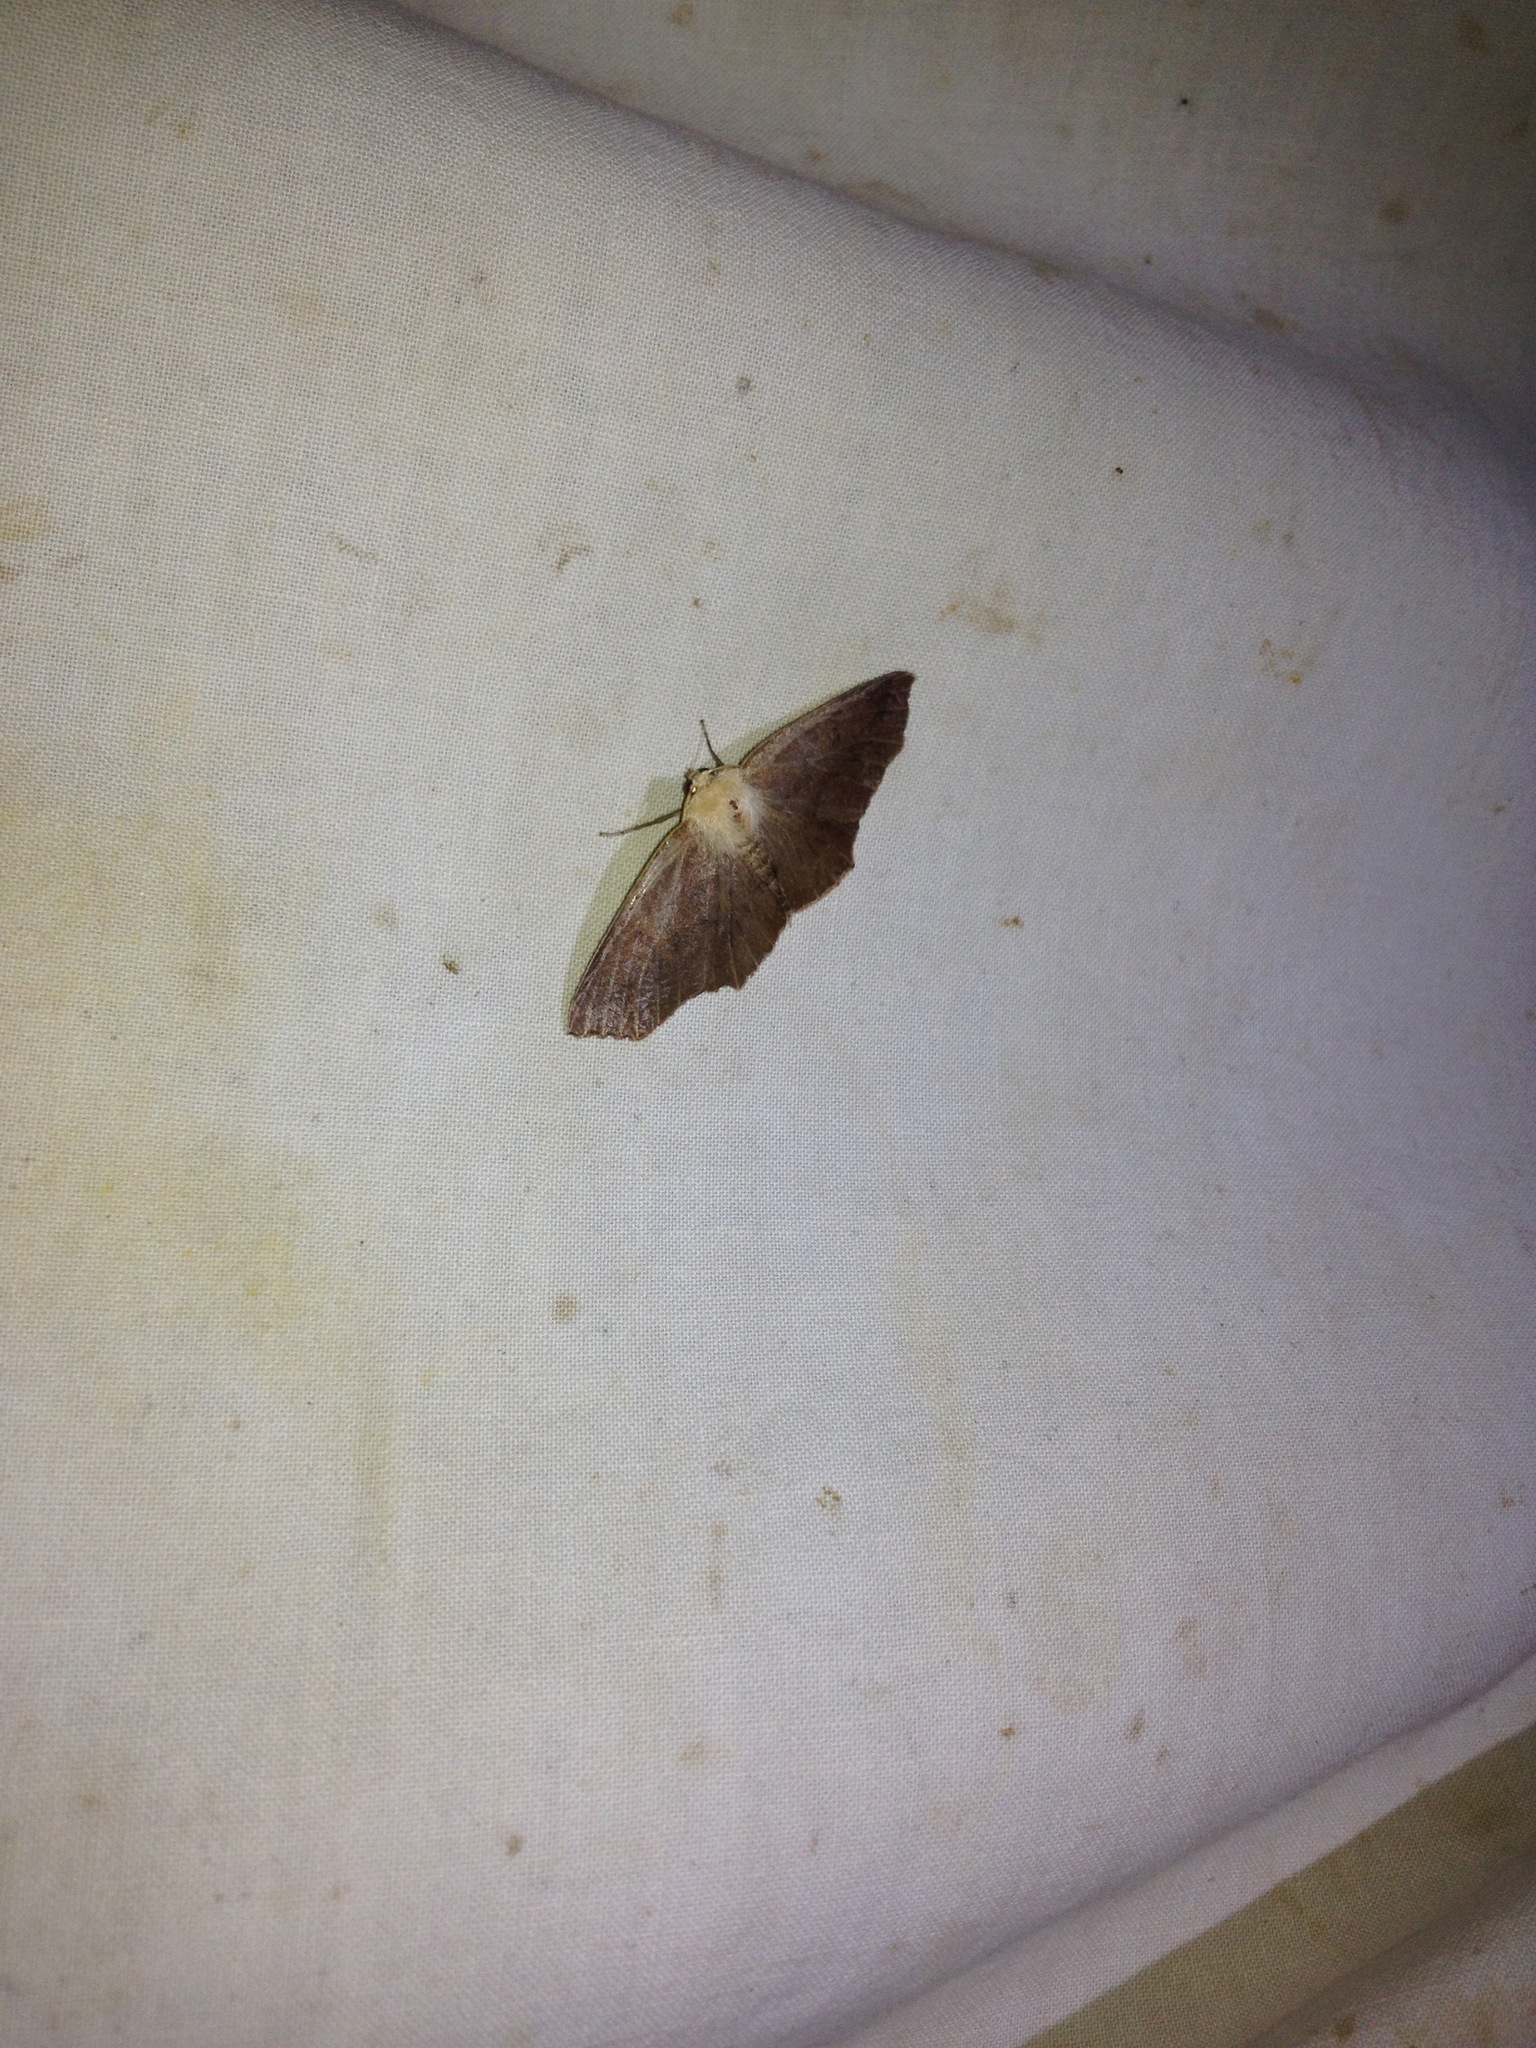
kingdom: Animalia
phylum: Arthropoda
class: Insecta
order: Lepidoptera
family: Geometridae
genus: Sabulodes
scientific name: Sabulodes aegrotata
